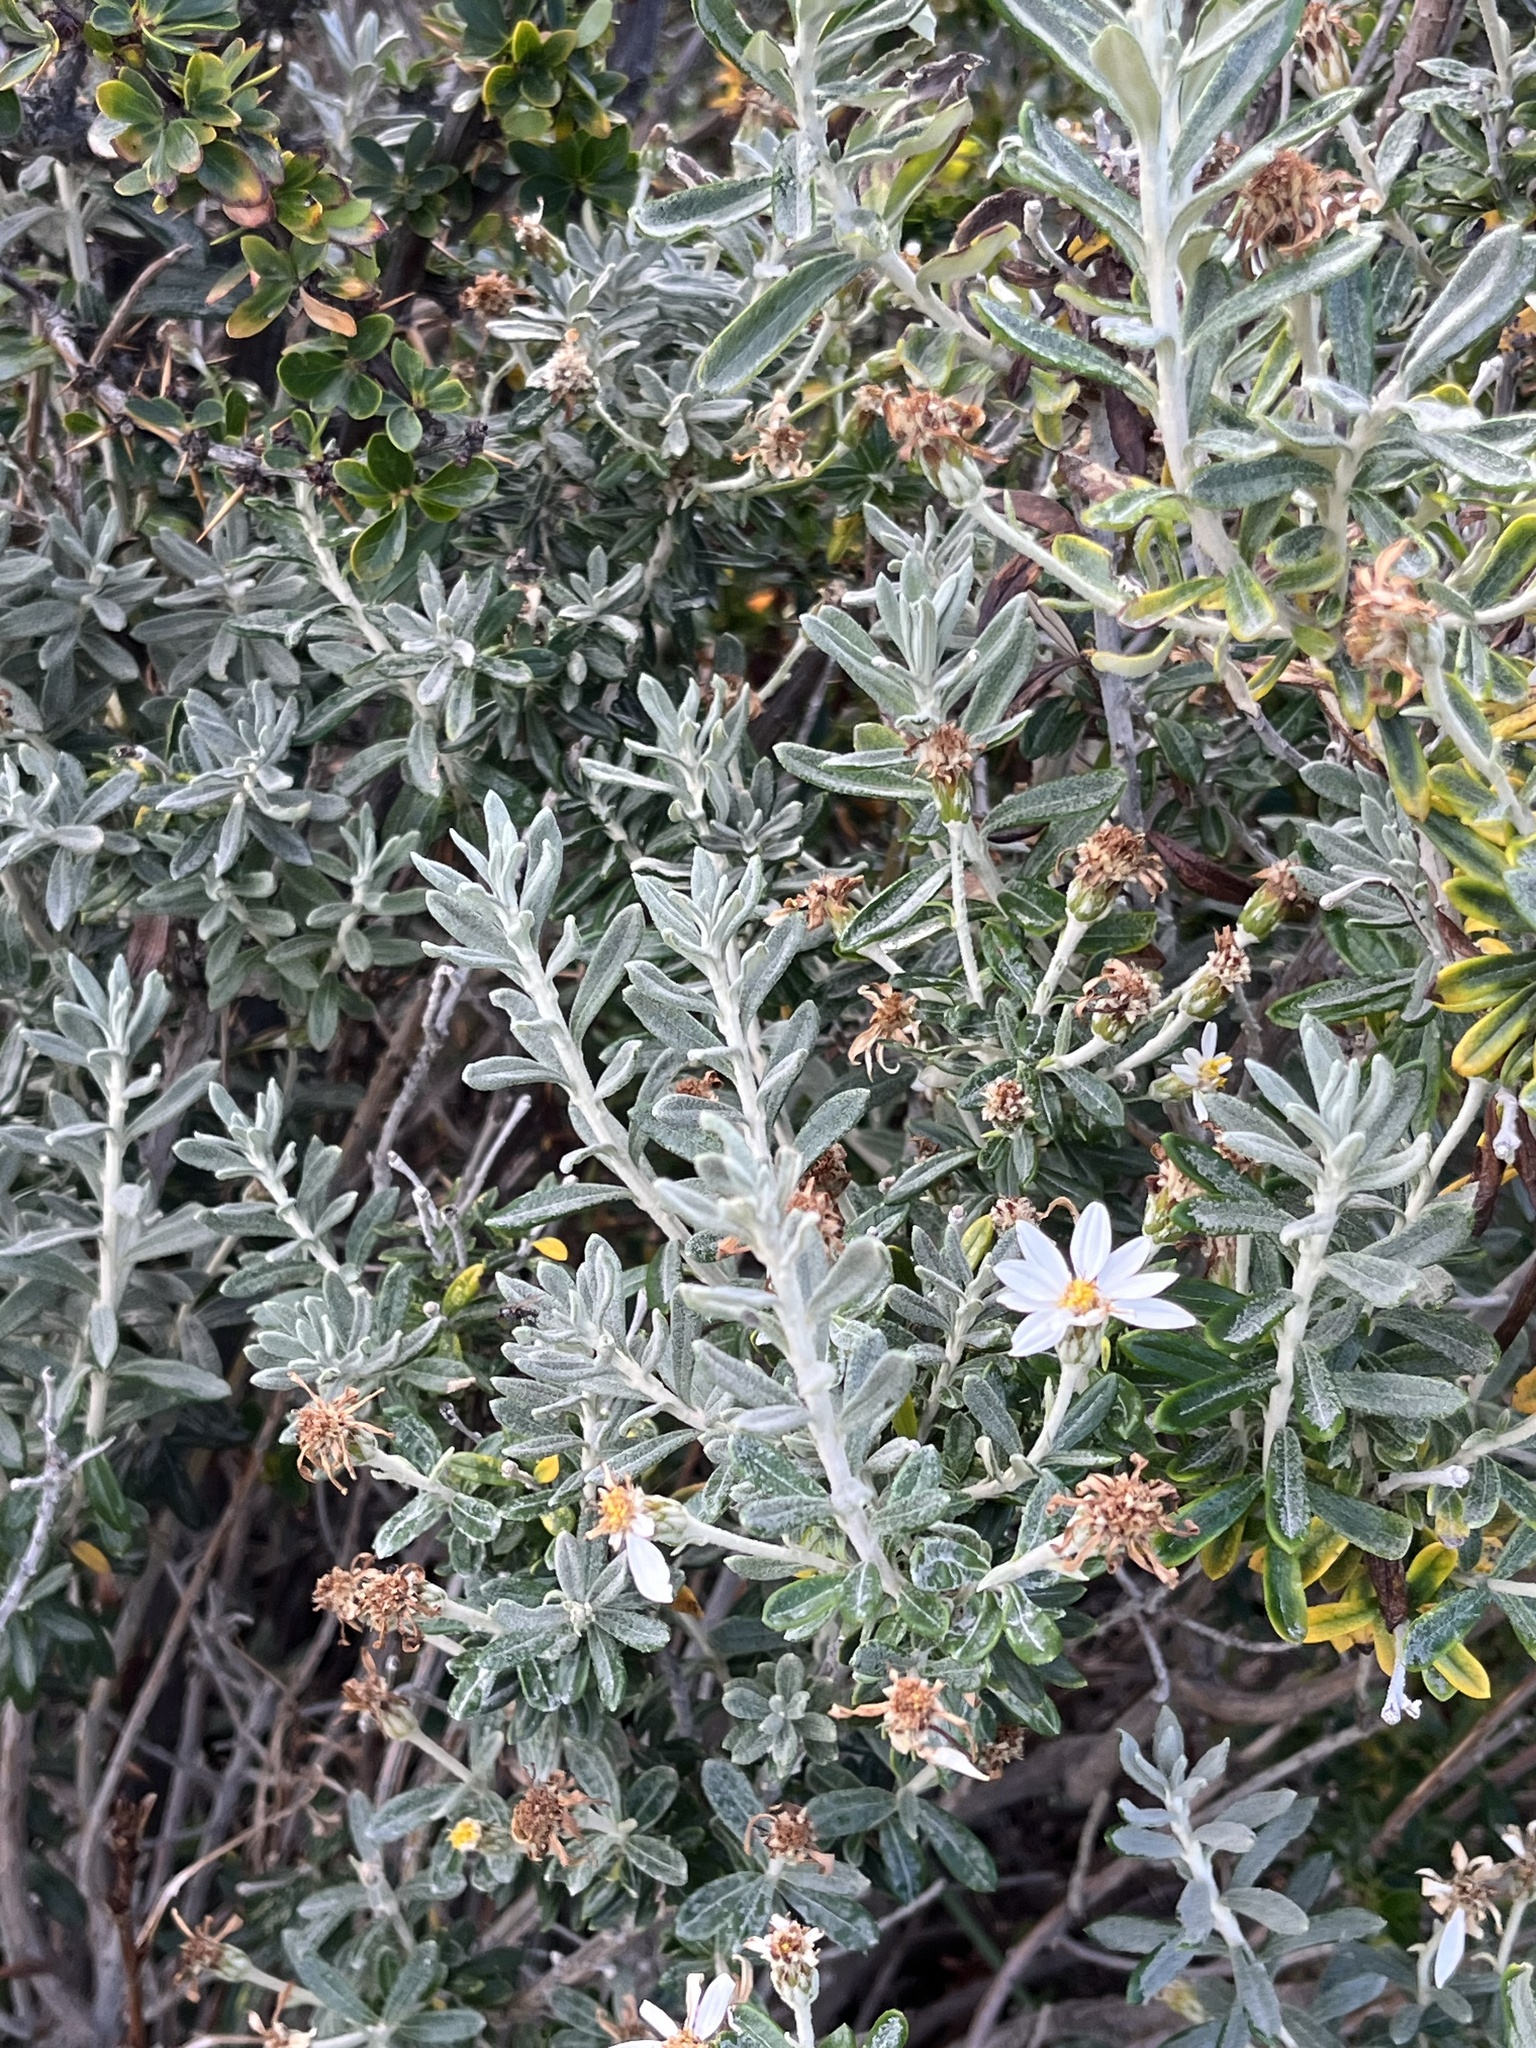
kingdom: Plantae
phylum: Tracheophyta
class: Magnoliopsida
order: Asterales
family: Asteraceae
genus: Chiliotrichum
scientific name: Chiliotrichum diffusum
